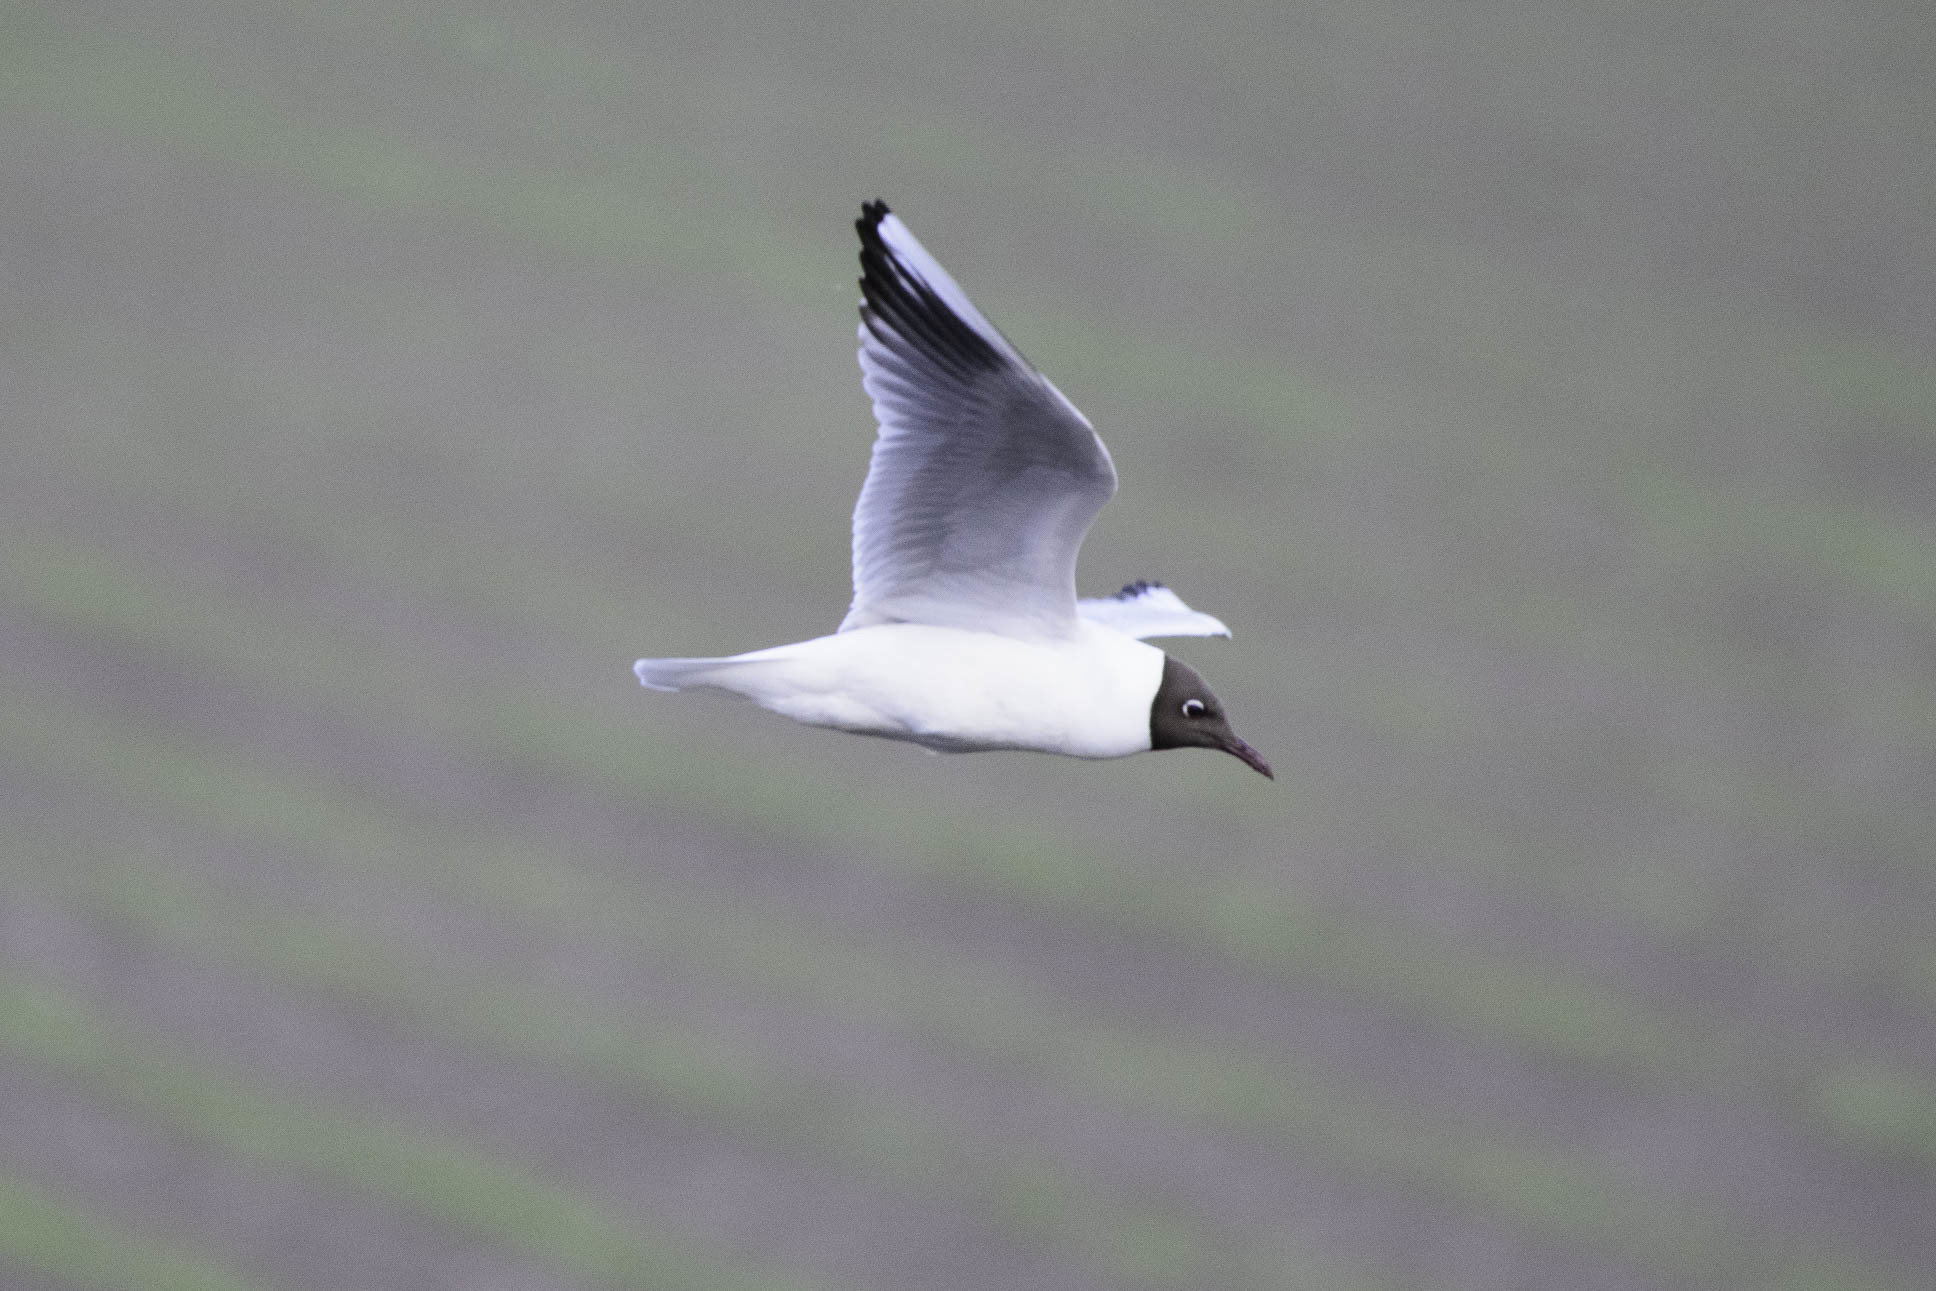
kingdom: Animalia
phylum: Chordata
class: Aves
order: Charadriiformes
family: Laridae
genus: Chroicocephalus
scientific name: Chroicocephalus ridibundus
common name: Black-headed gull
